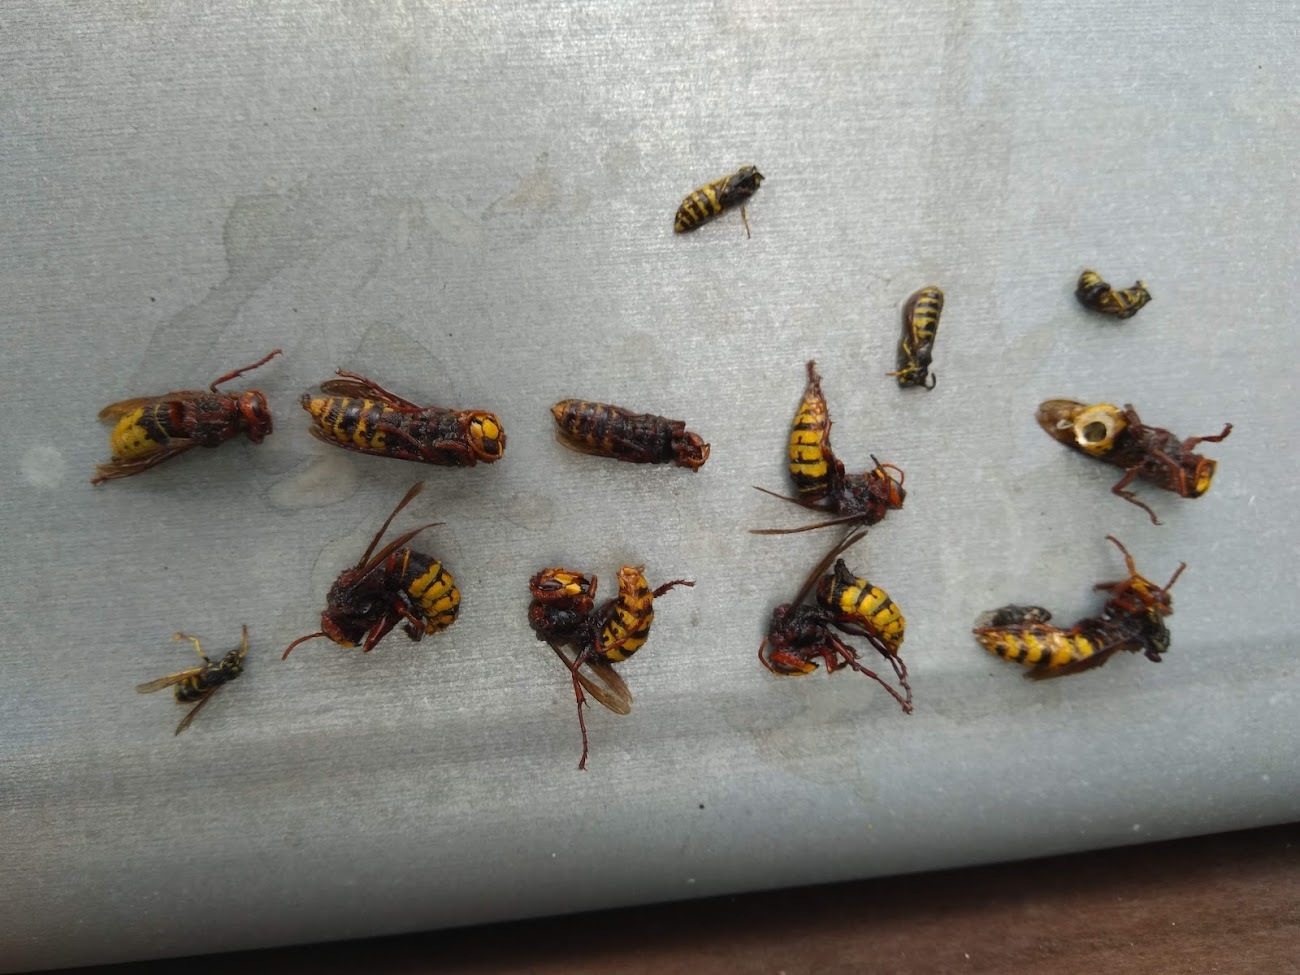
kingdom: Animalia
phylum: Arthropoda
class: Insecta
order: Hymenoptera
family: Vespidae
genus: Vespa
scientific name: Vespa crabro
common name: Hornet
